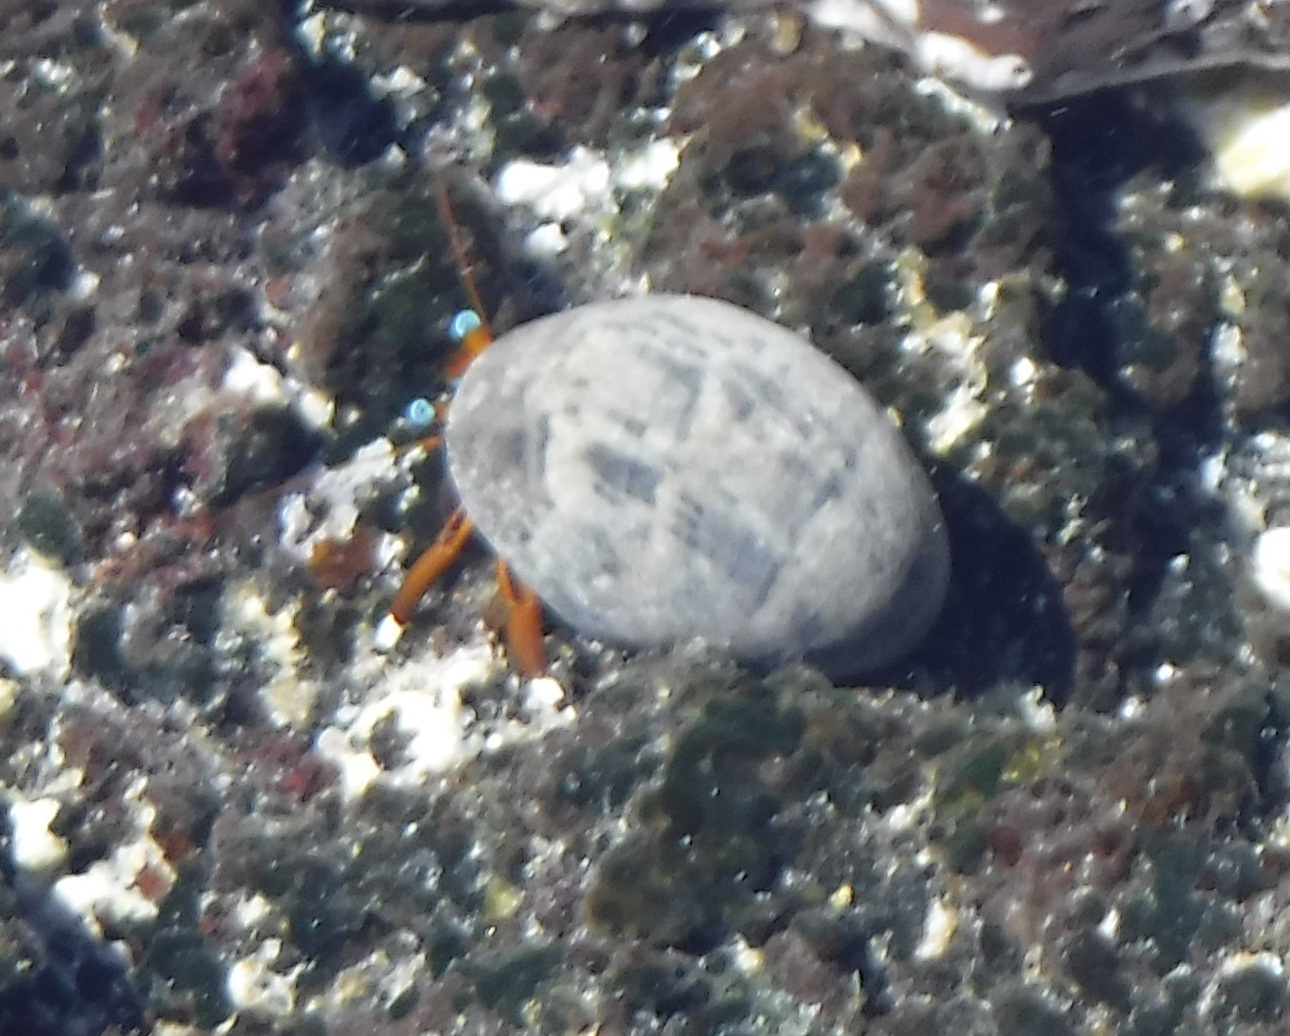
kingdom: Animalia
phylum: Arthropoda
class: Malacostraca
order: Decapoda
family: Diogenidae
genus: Calcinus
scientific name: Calcinus laevimanus
